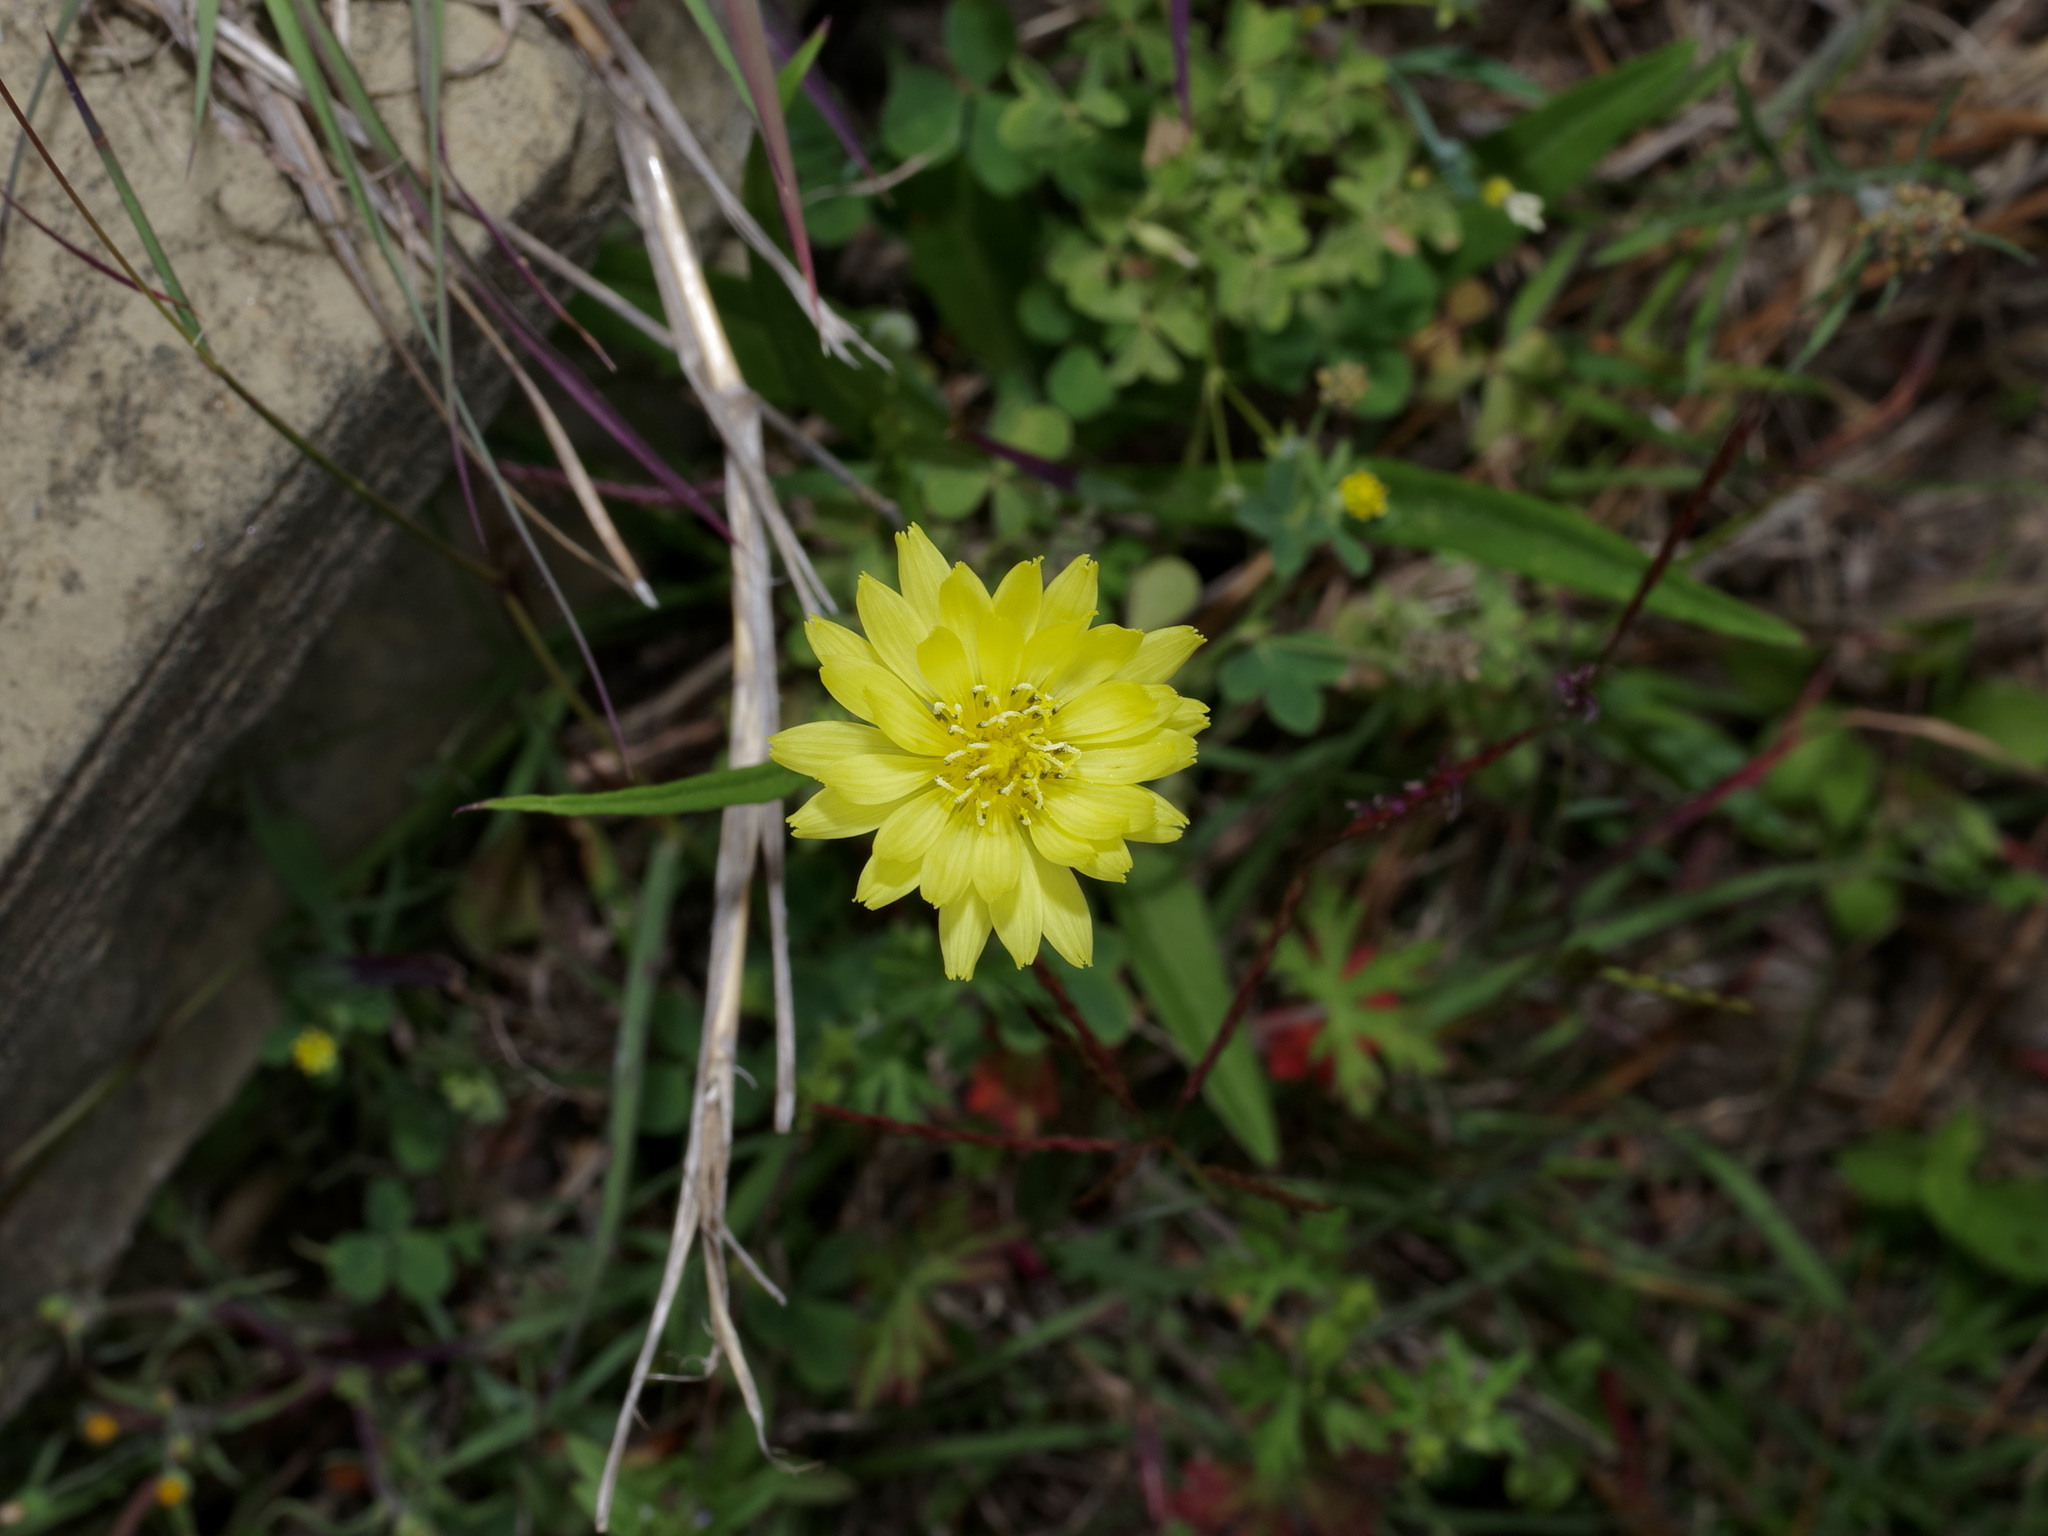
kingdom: Plantae
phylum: Tracheophyta
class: Magnoliopsida
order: Asterales
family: Asteraceae
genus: Pyrrhopappus
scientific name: Pyrrhopappus carolinianus
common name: Carolina desert-chicory
